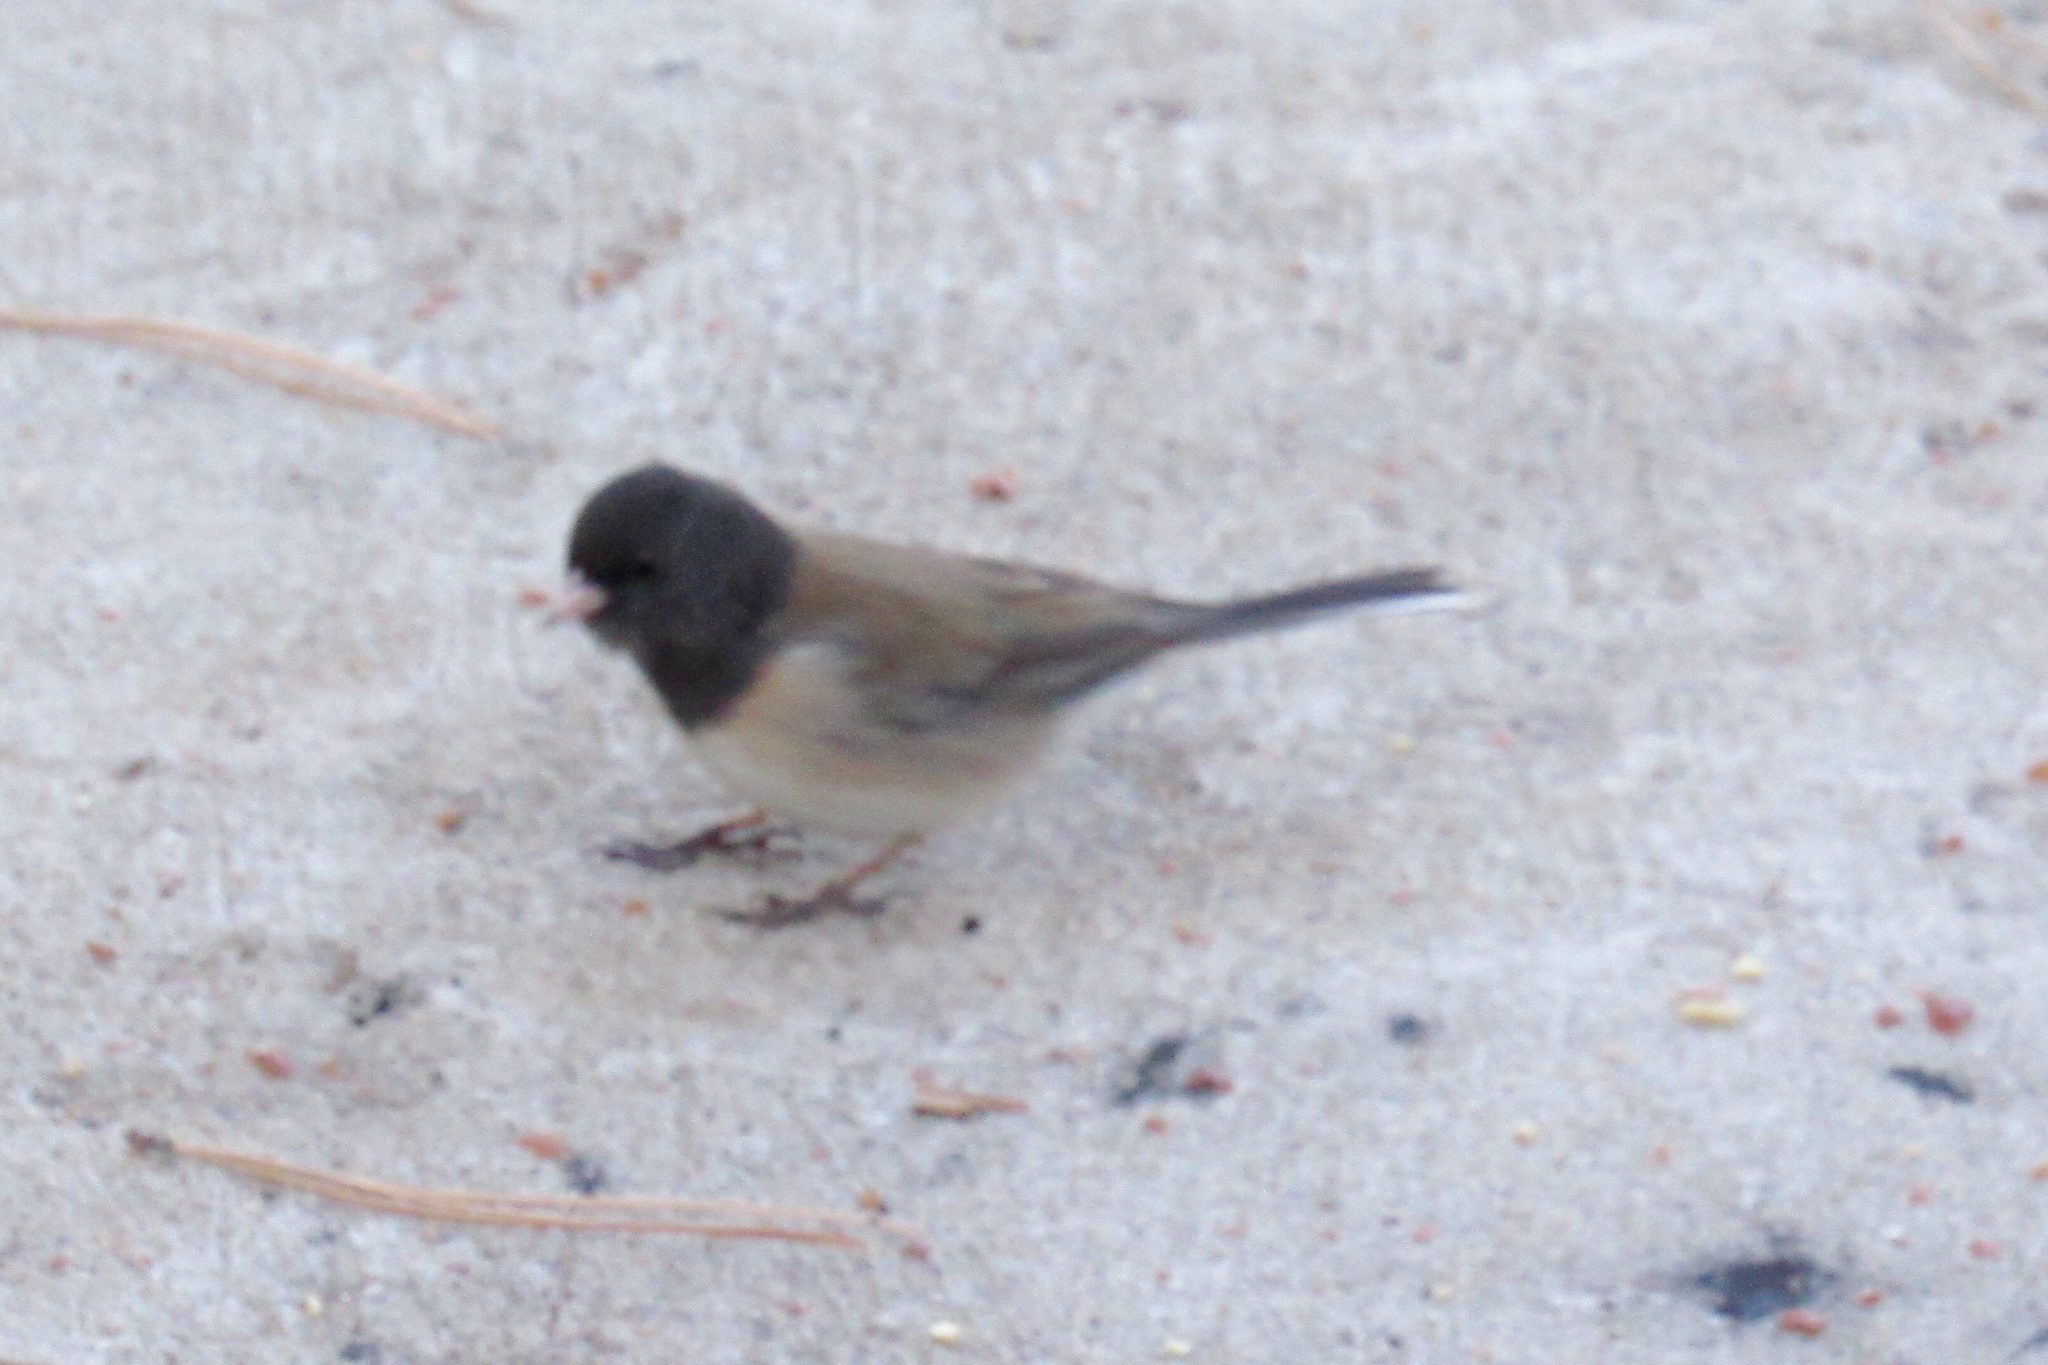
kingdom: Animalia
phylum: Chordata
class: Aves
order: Passeriformes
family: Passerellidae
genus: Junco
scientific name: Junco hyemalis
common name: Dark-eyed junco
